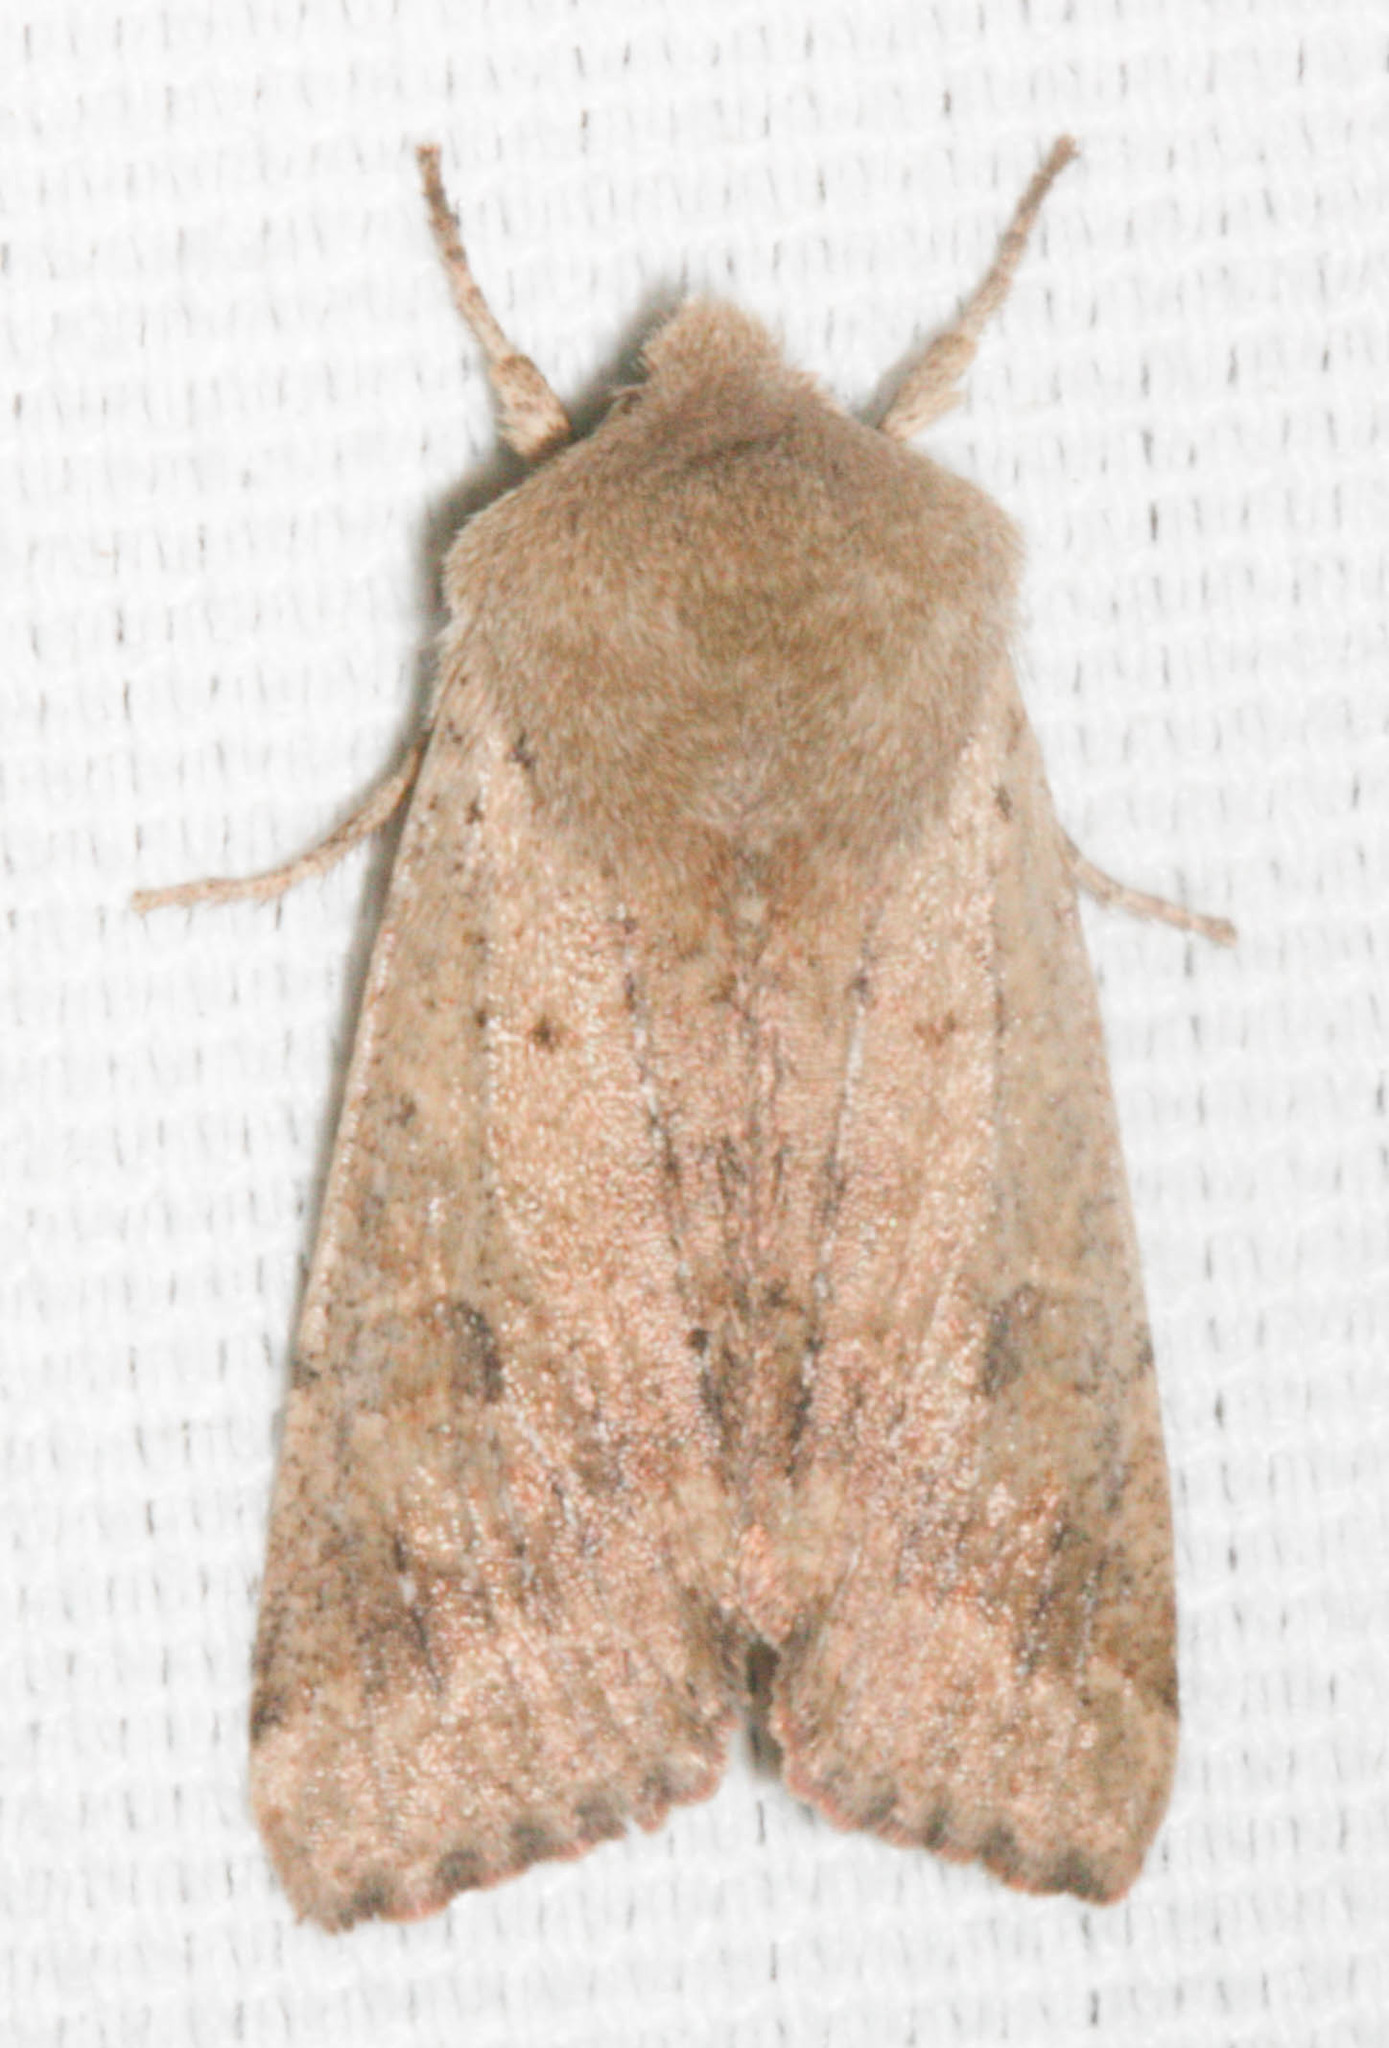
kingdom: Animalia
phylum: Arthropoda
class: Insecta
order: Lepidoptera
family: Noctuidae
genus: Orthosia
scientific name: Orthosia pacifica
